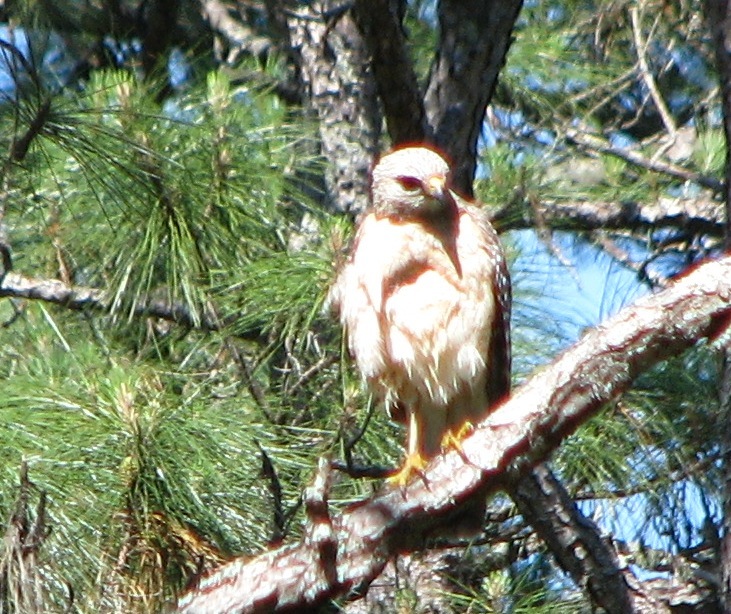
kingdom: Animalia
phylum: Chordata
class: Aves
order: Accipitriformes
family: Accipitridae
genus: Buteo
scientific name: Buteo lineatus
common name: Red-shouldered hawk
